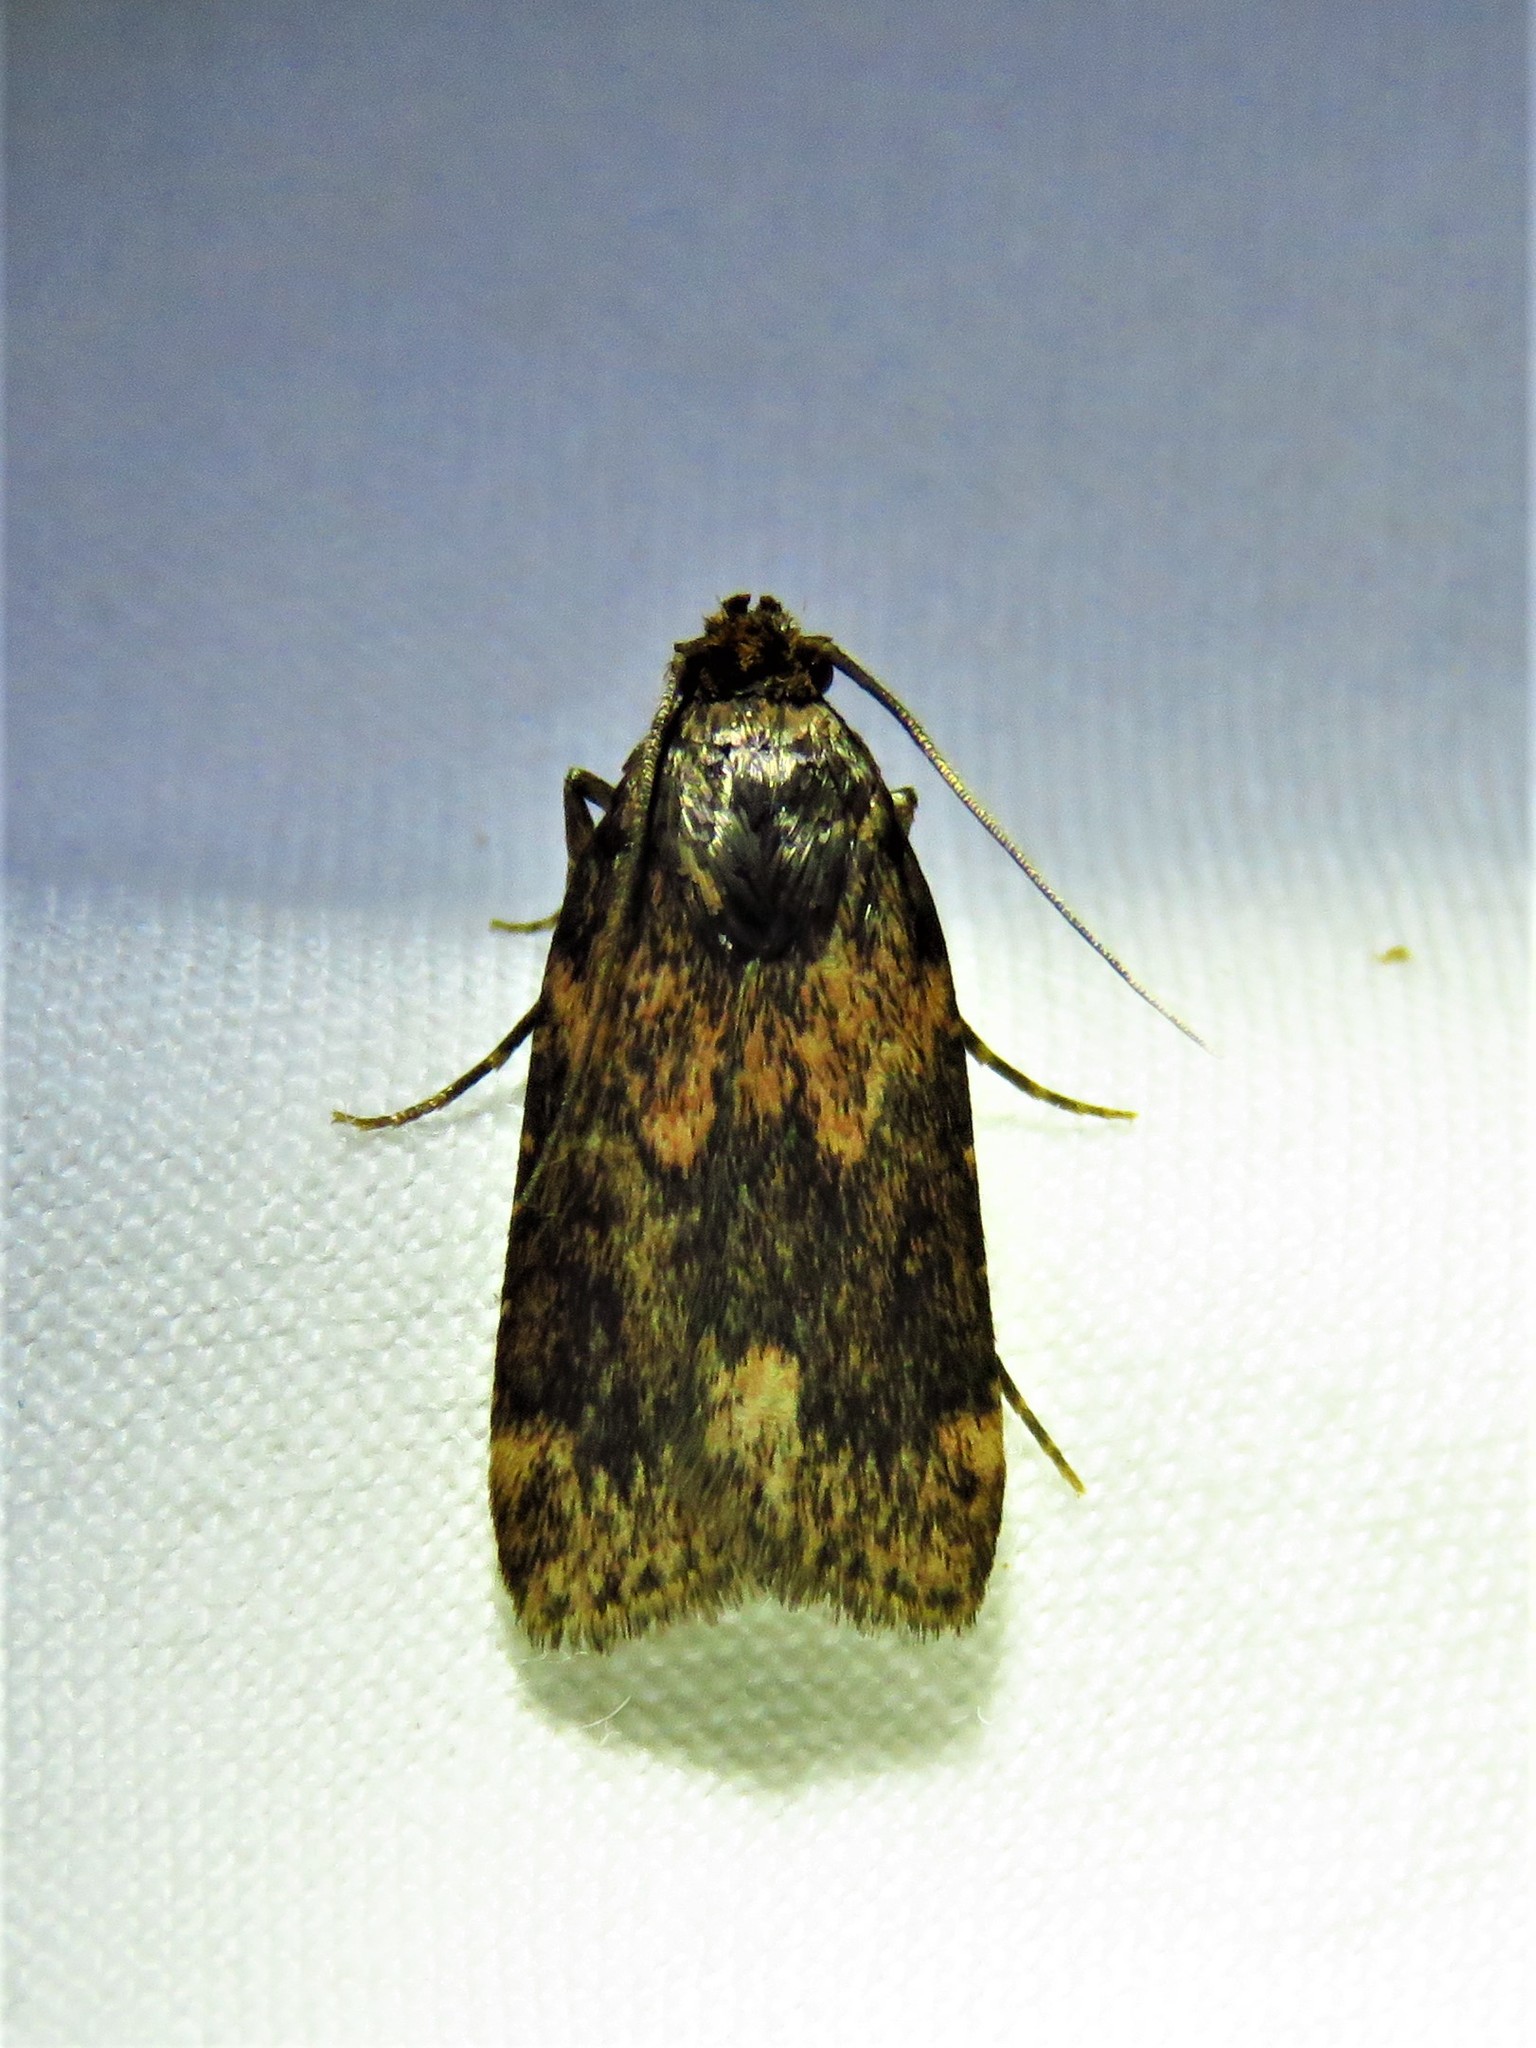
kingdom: Animalia
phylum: Arthropoda
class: Insecta
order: Lepidoptera
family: Pyralidae
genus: Aglossa
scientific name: Aglossa cuprina
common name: Grease moth
